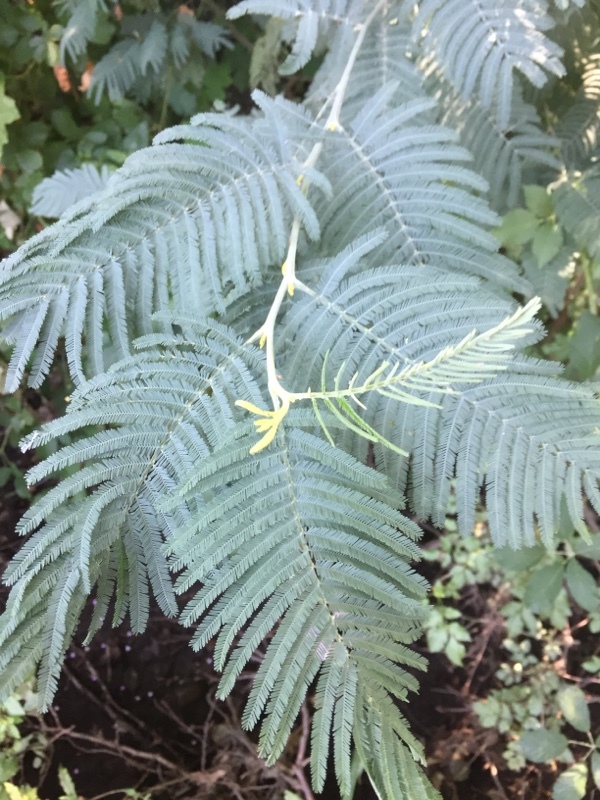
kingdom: Plantae
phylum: Tracheophyta
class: Magnoliopsida
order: Fabales
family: Fabaceae
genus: Acacia
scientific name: Acacia dealbata
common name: Silver wattle
